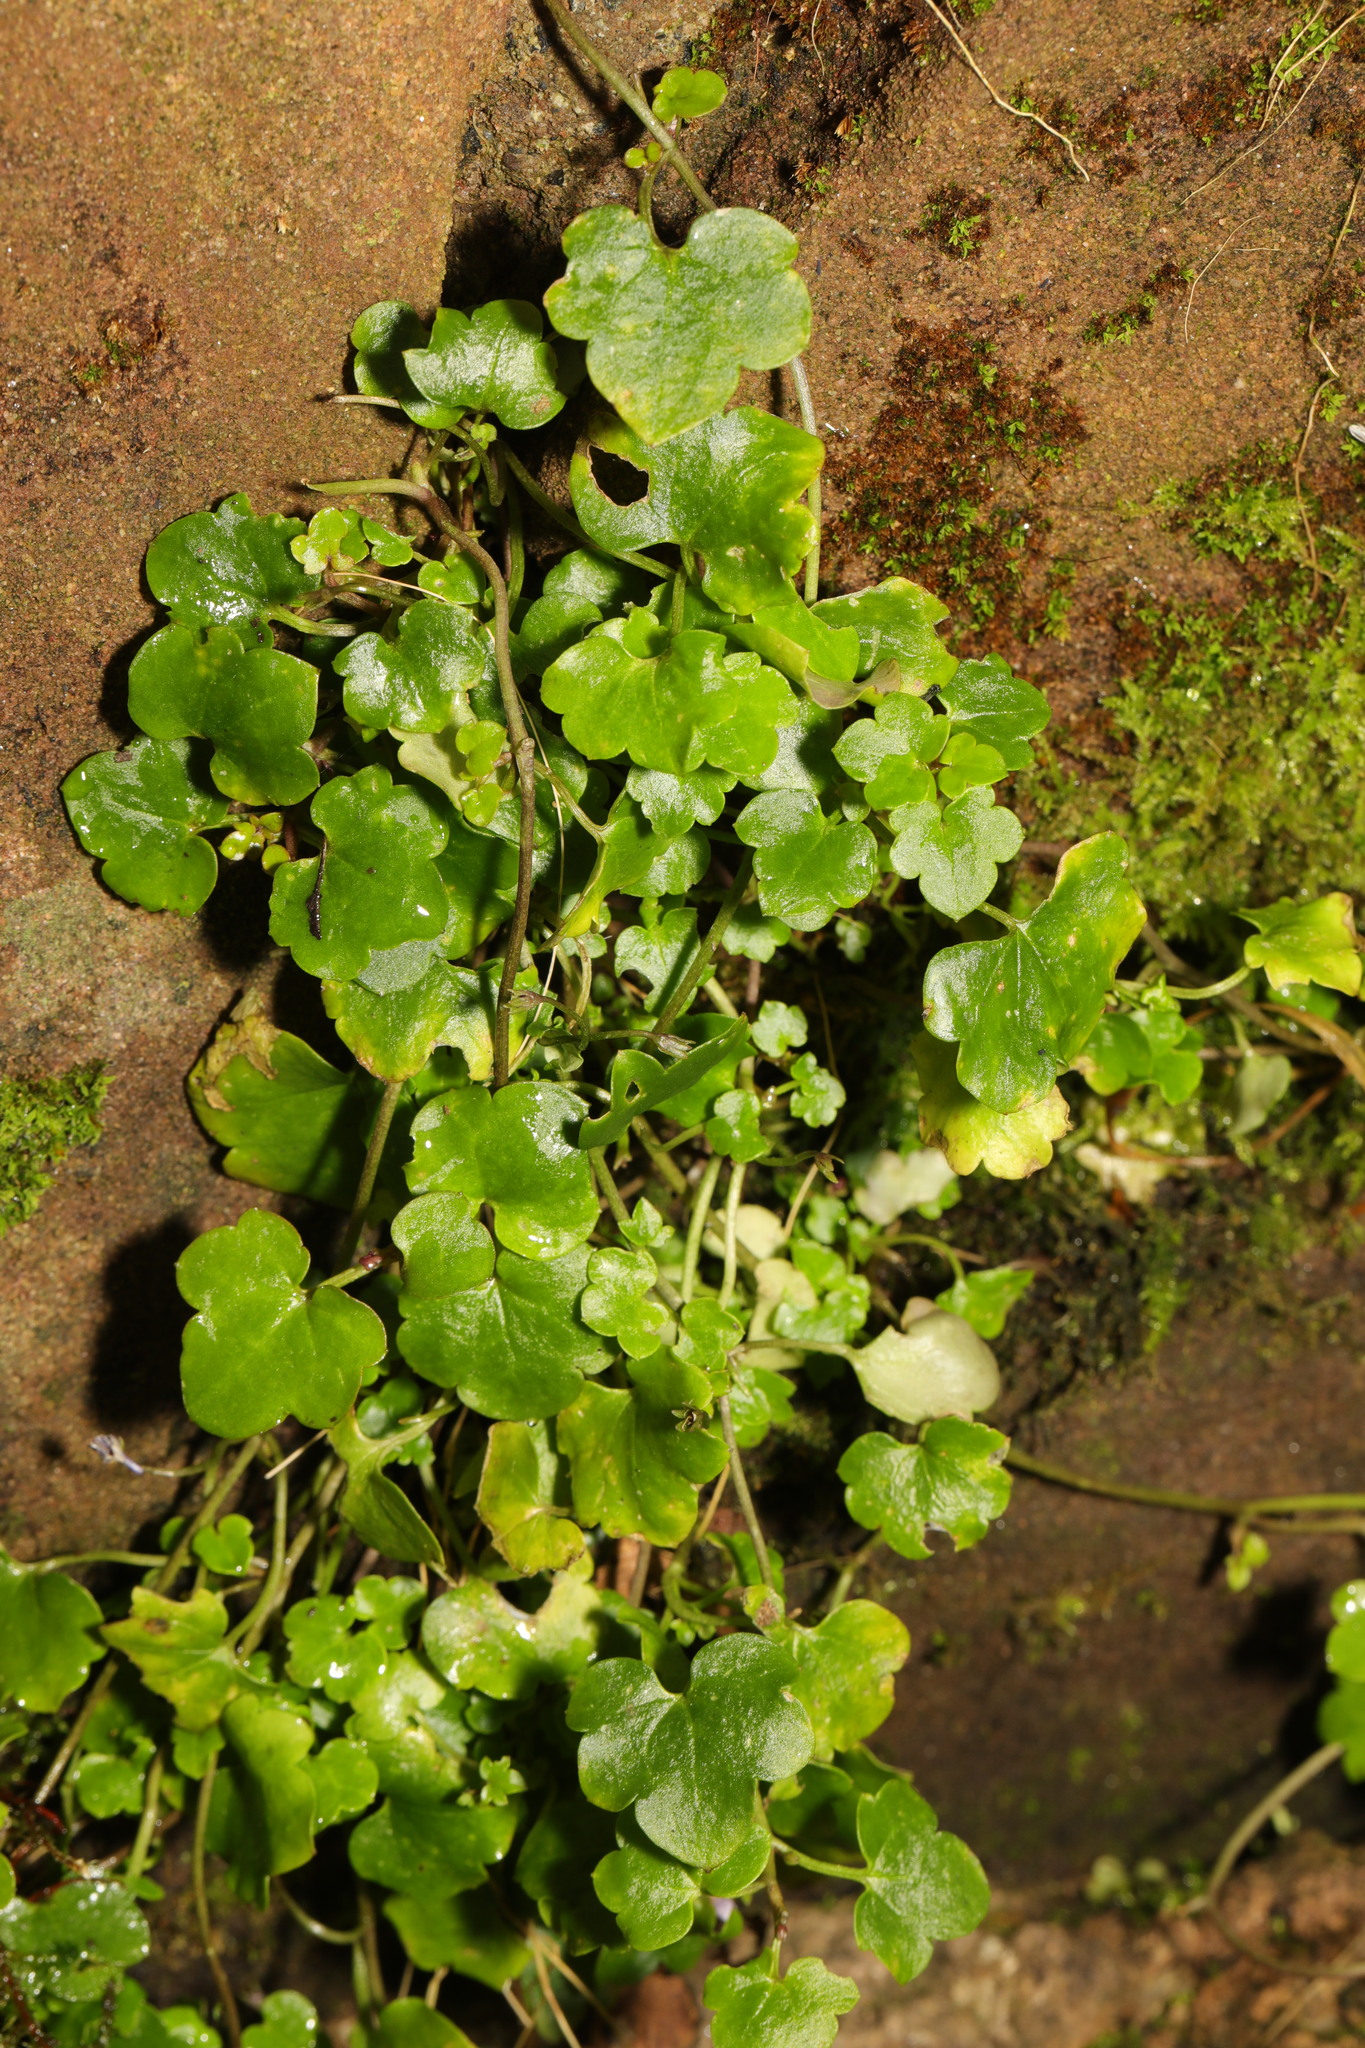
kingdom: Plantae
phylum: Tracheophyta
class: Magnoliopsida
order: Lamiales
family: Plantaginaceae
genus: Cymbalaria
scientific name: Cymbalaria muralis
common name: Ivy-leaved toadflax
